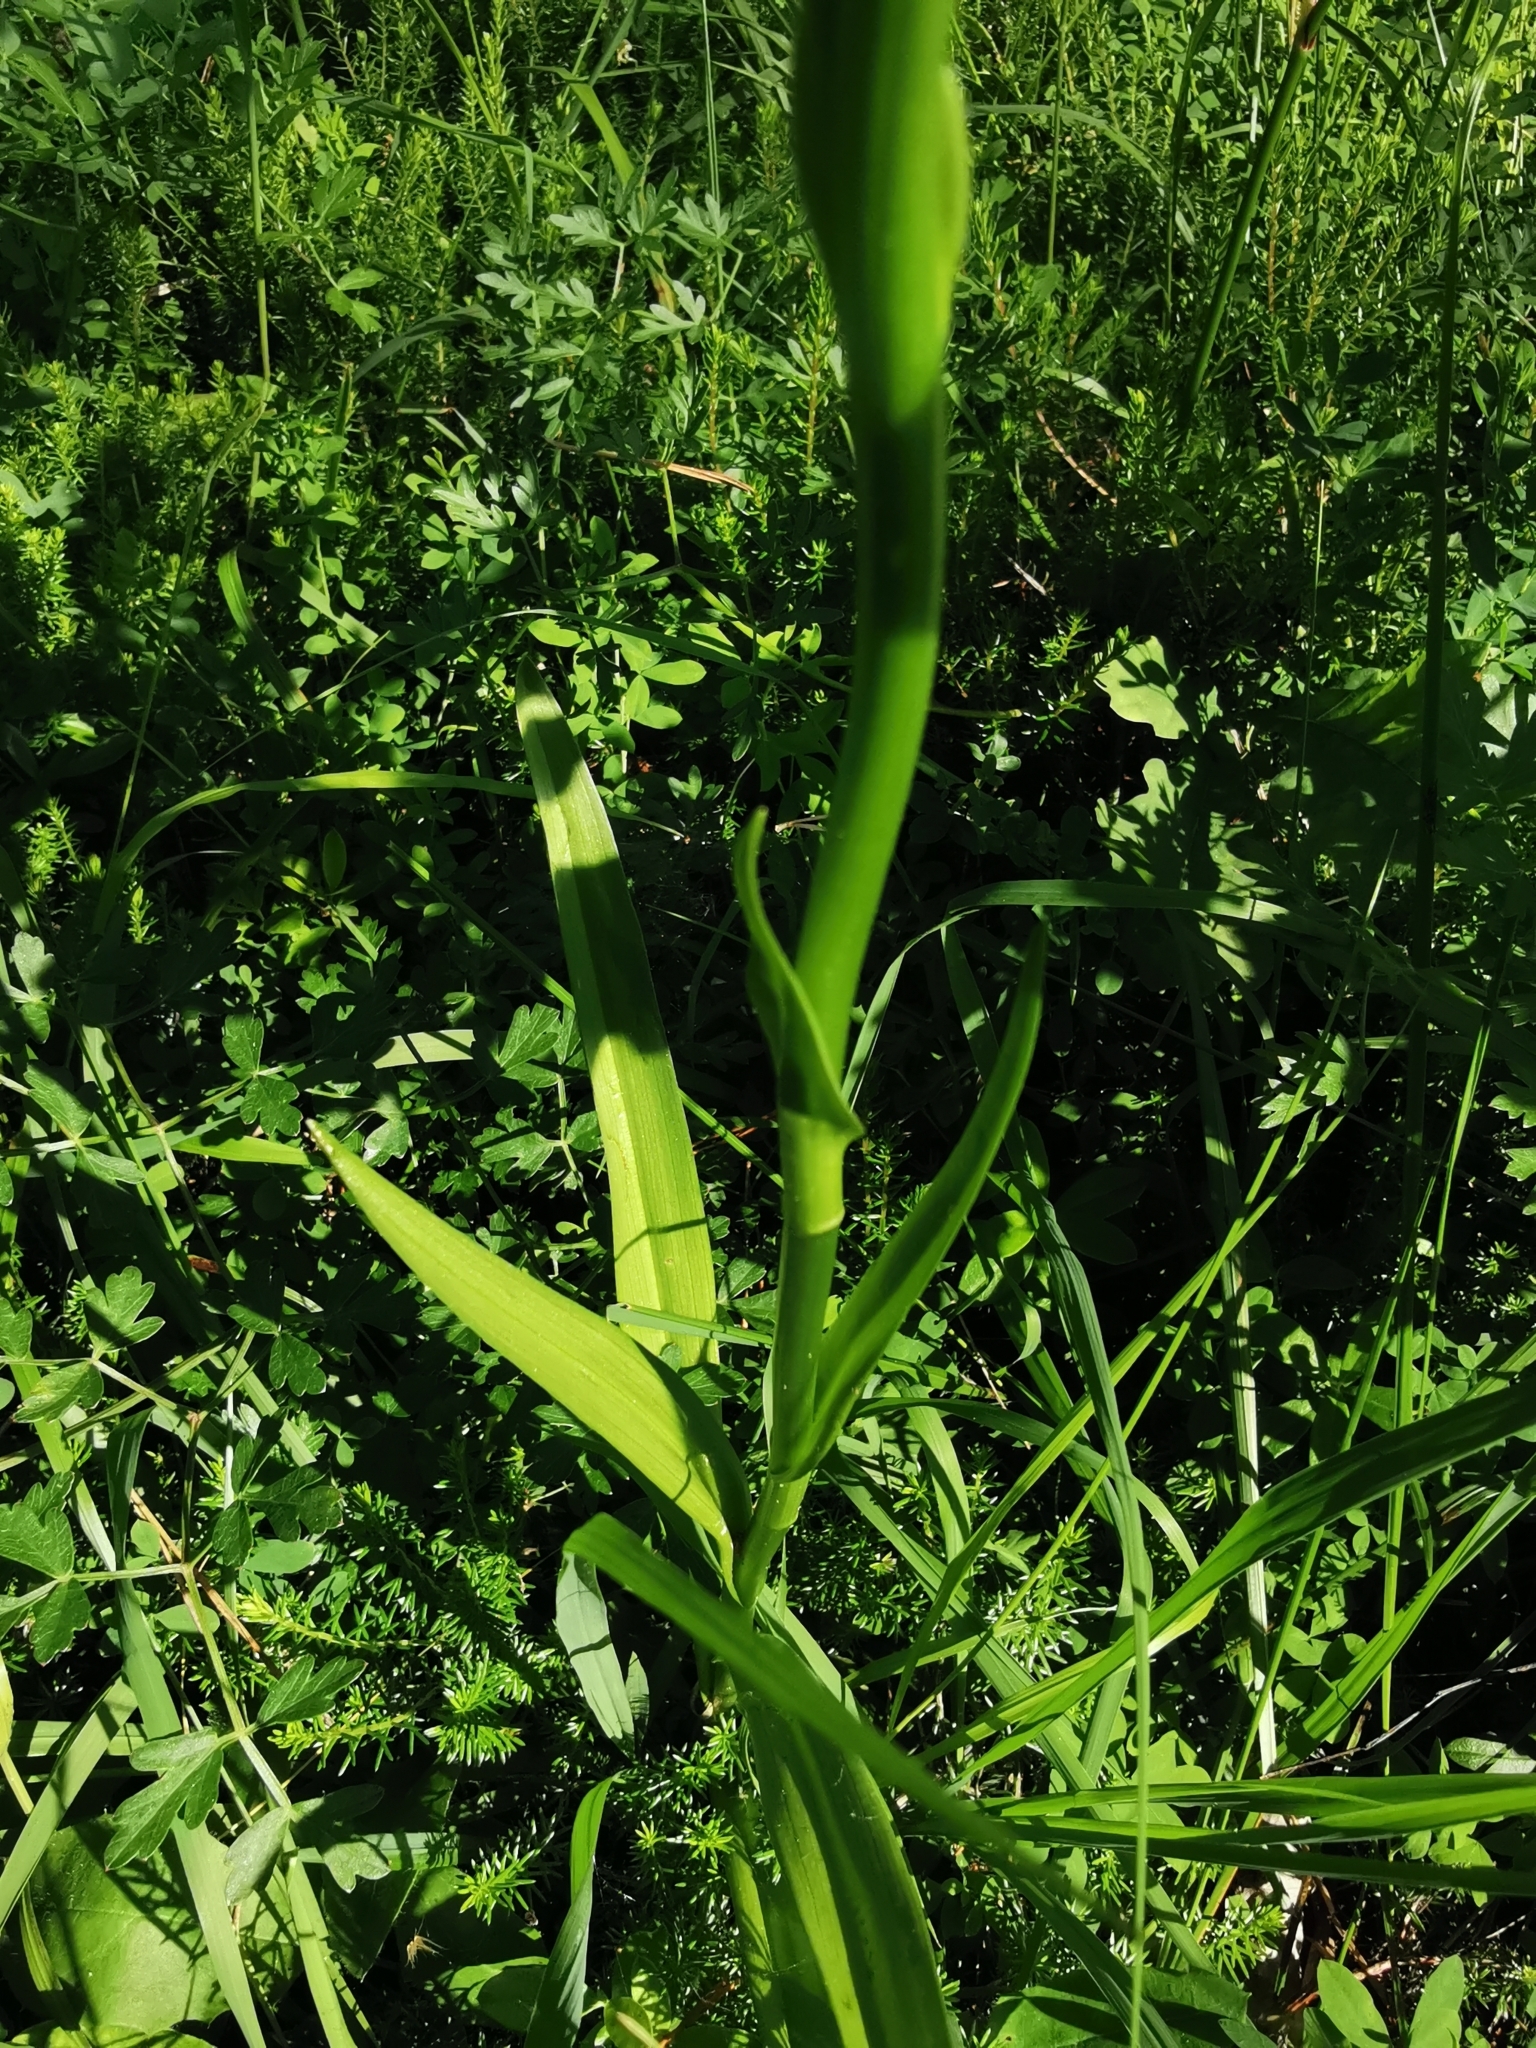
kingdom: Plantae
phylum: Tracheophyta
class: Liliopsida
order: Asparagales
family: Orchidaceae
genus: Gymnadenia
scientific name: Gymnadenia conopsea
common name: Fragrant orchid
